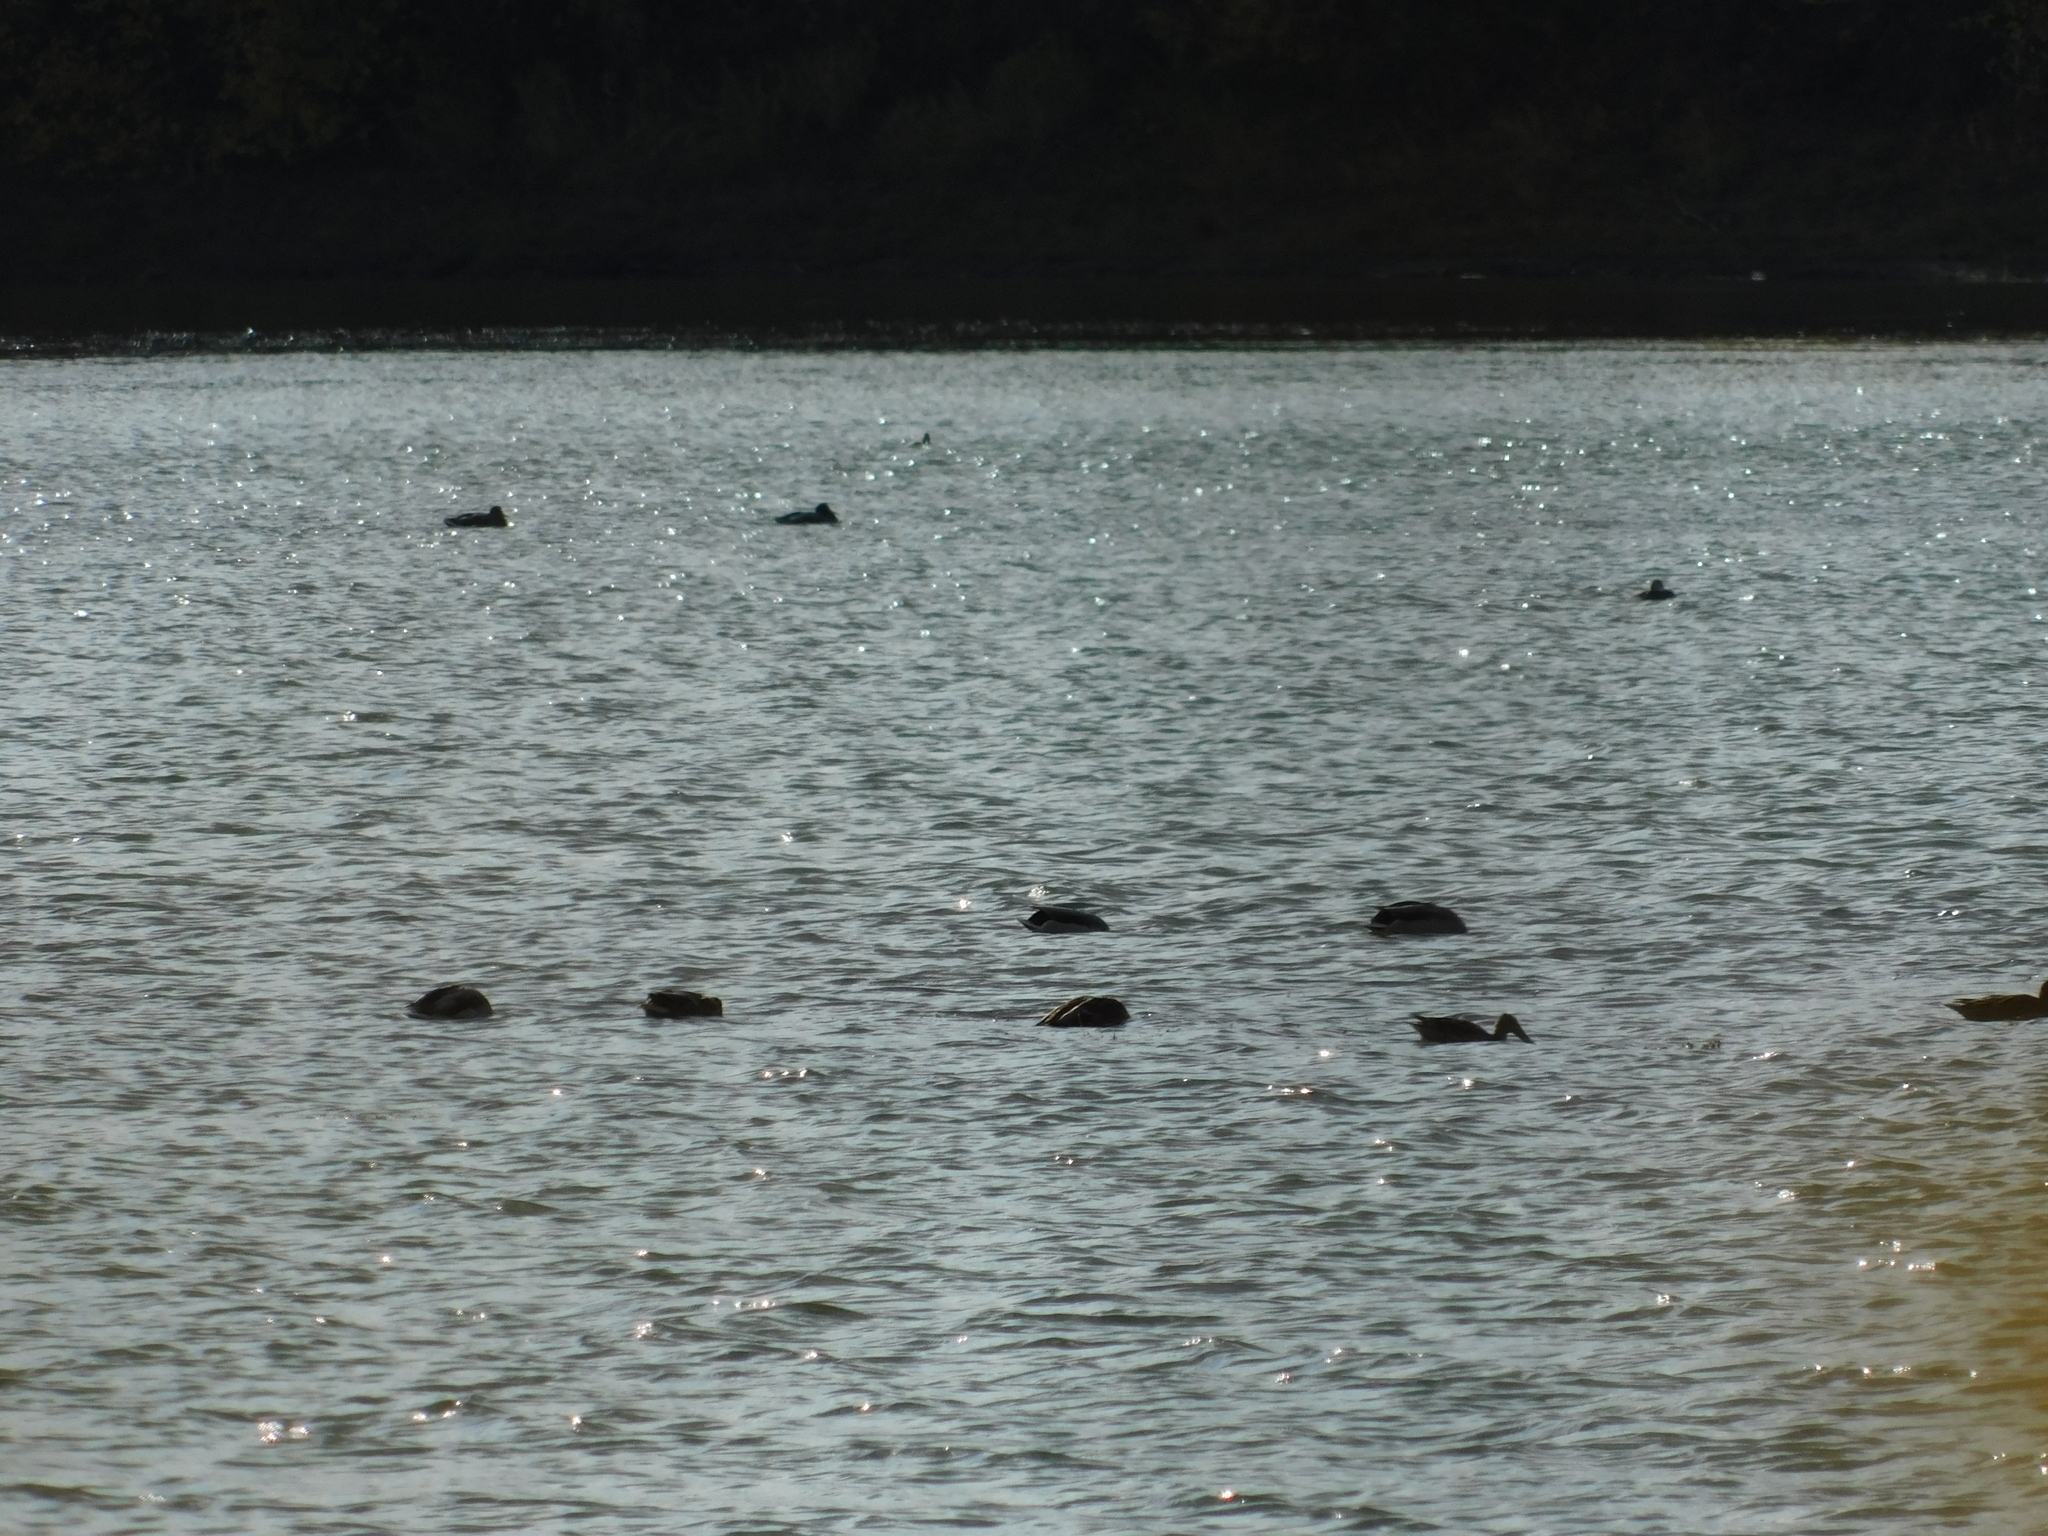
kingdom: Animalia
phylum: Chordata
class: Aves
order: Anseriformes
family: Anatidae
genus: Spatula
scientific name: Spatula clypeata
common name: Northern shoveler
